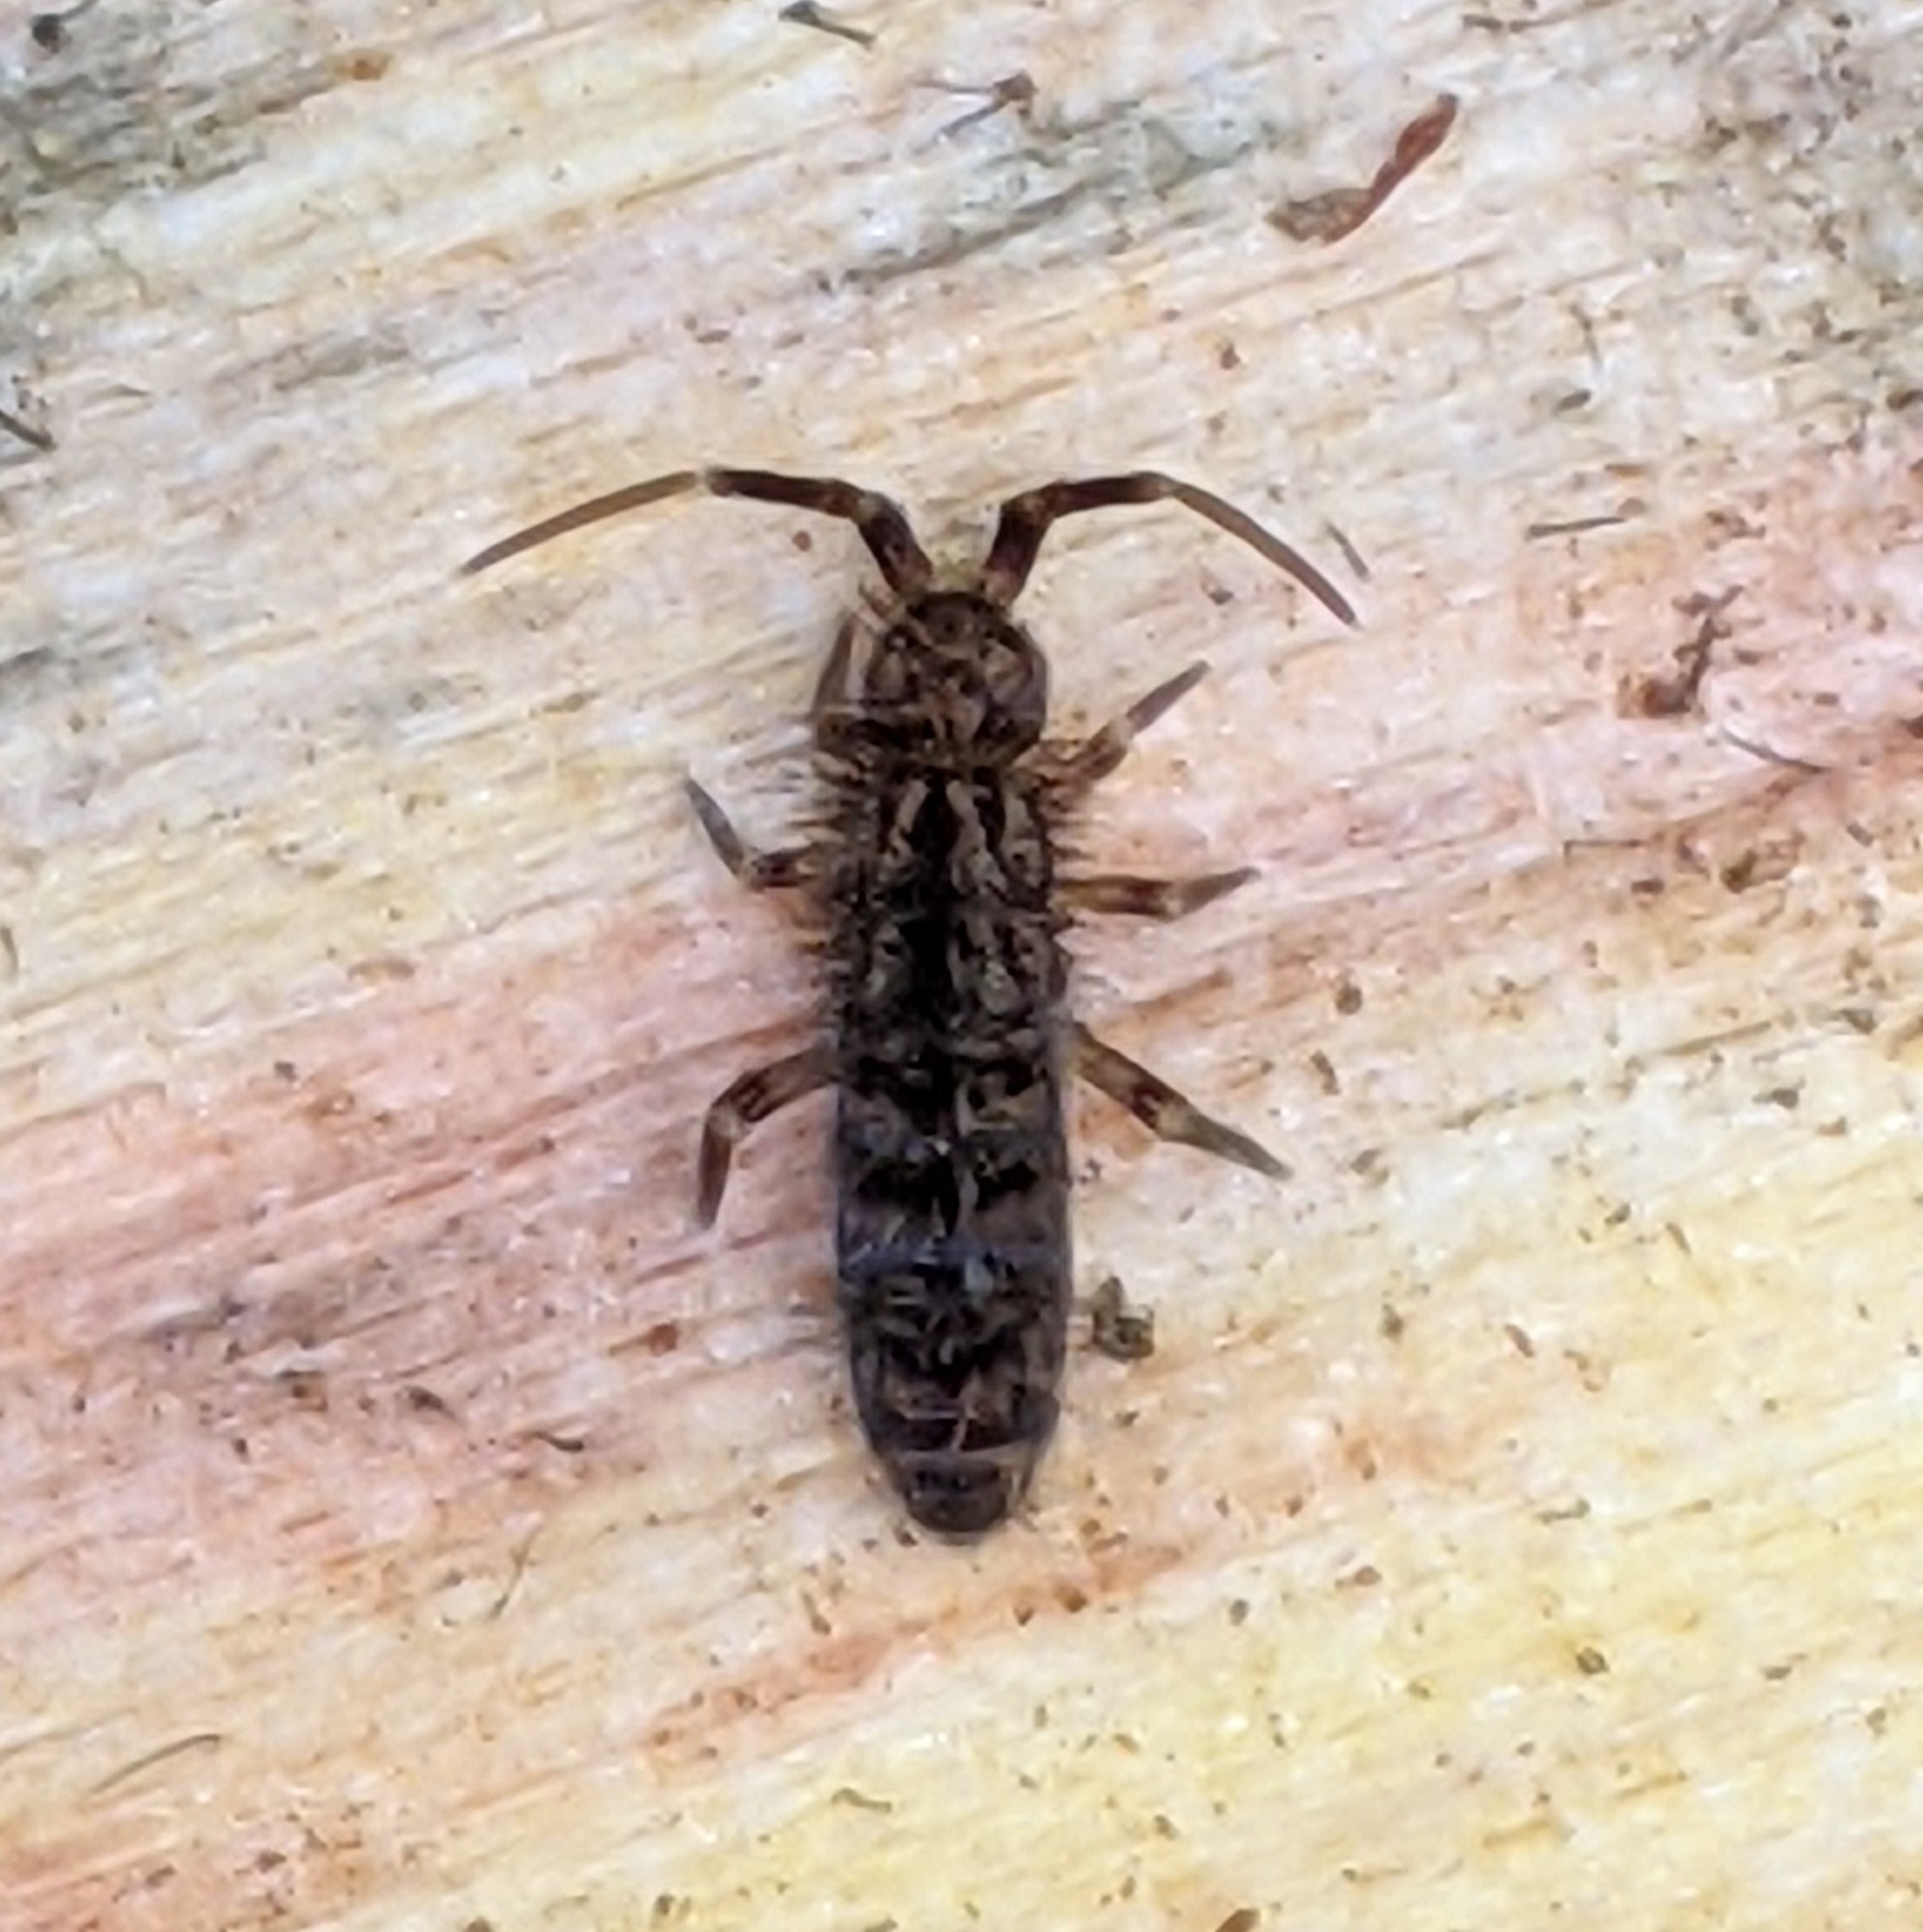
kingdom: Animalia
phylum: Arthropoda
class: Collembola
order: Entomobryomorpha
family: Orchesellidae
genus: Orchesella
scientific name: Orchesella villosa
